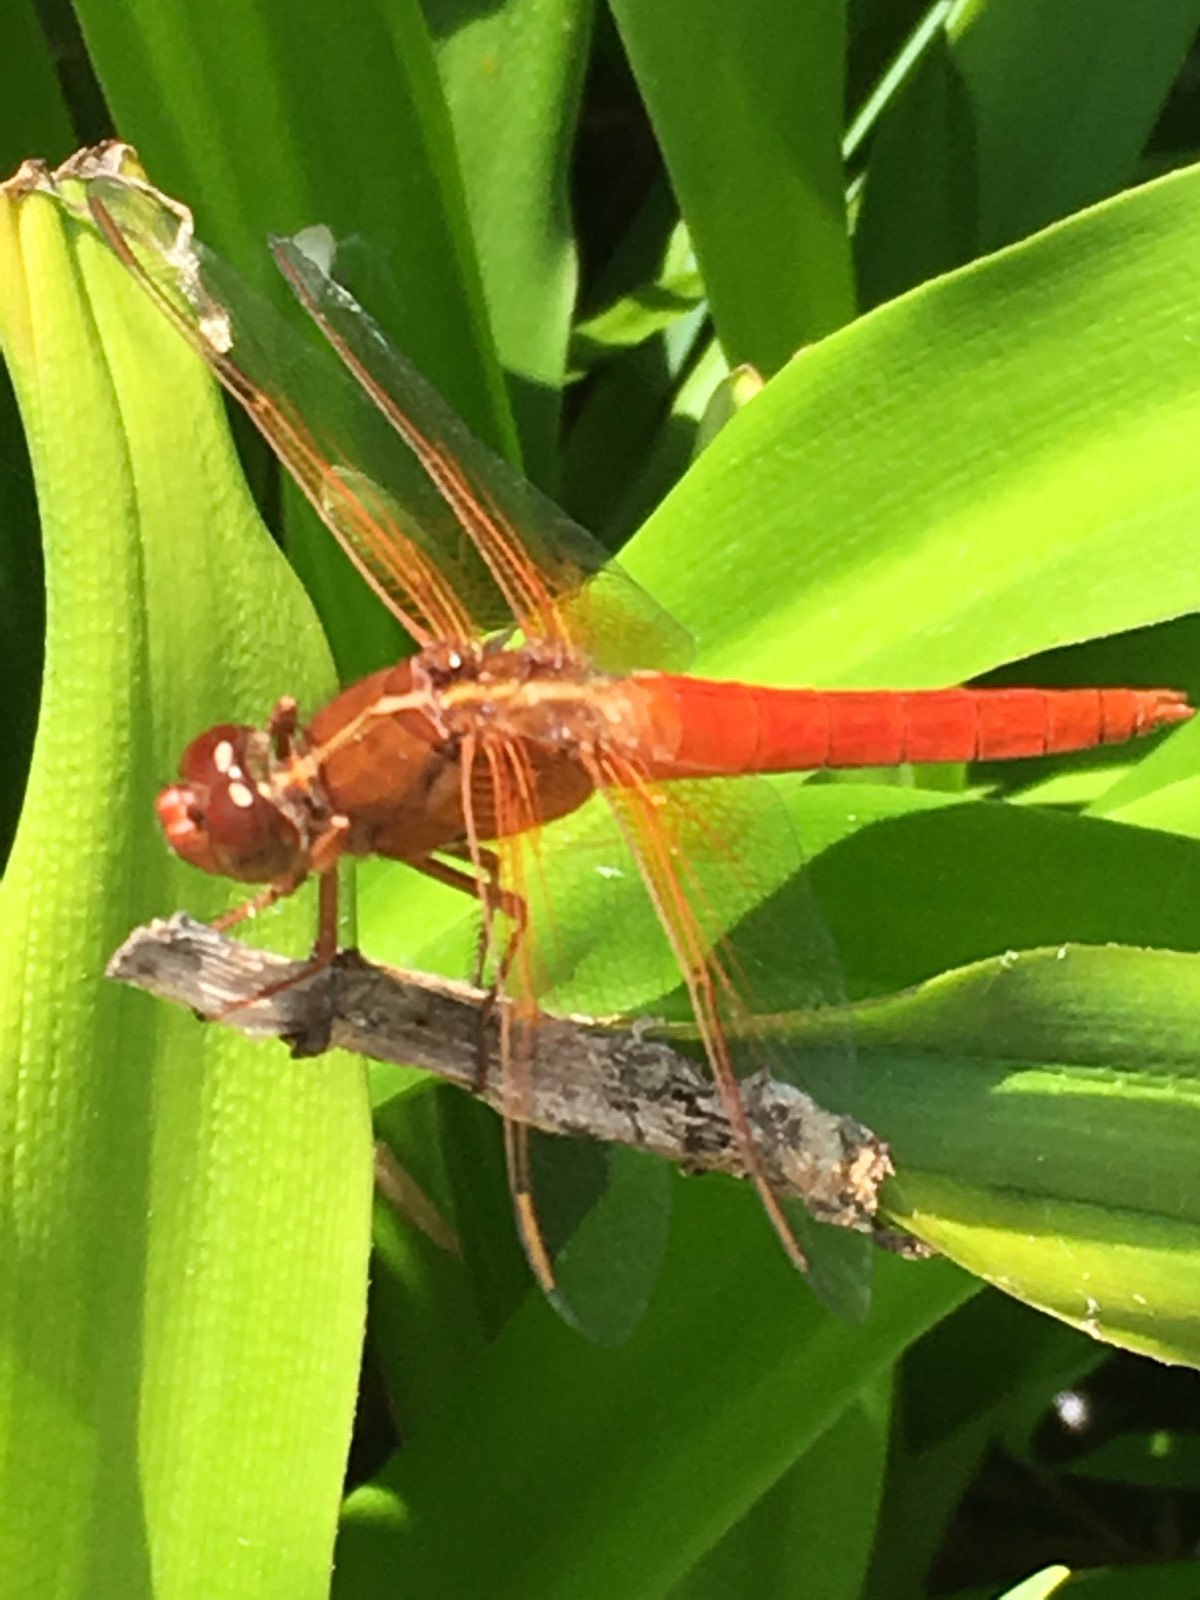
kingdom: Animalia
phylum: Arthropoda
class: Insecta
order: Odonata
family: Libellulidae
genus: Libellula
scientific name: Libellula croceipennis
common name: Neon skimmer
